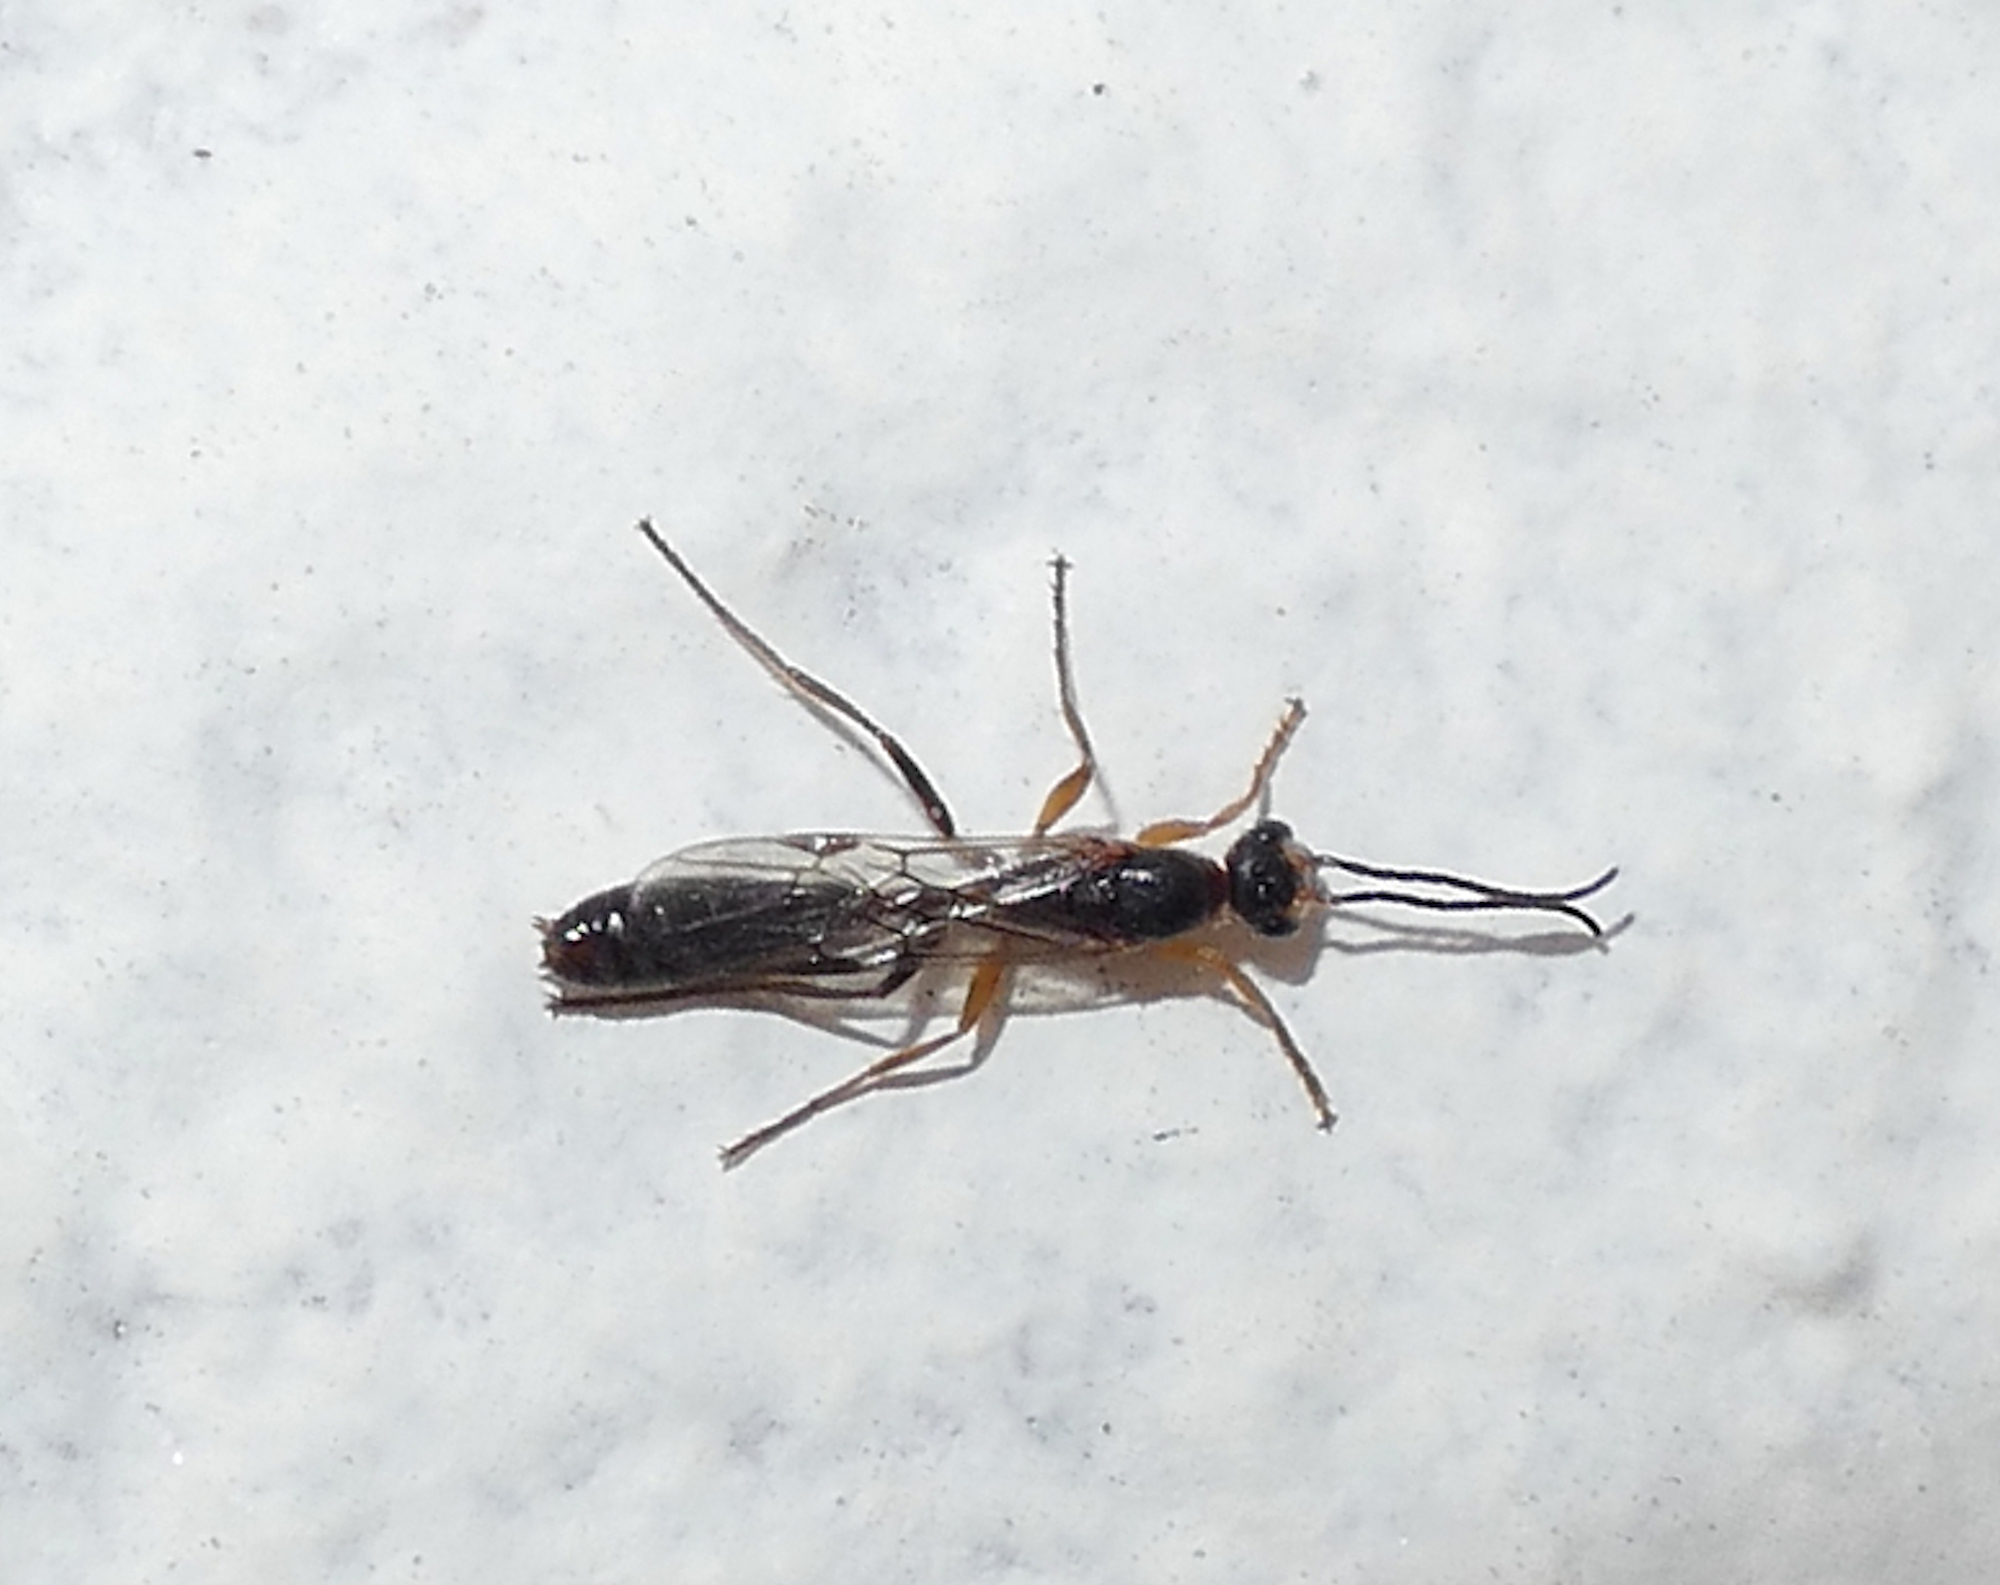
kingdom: Animalia
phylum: Arthropoda
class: Insecta
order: Hymenoptera
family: Formicidae
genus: Pseudomyrmex
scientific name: Pseudomyrmex gracilis
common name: Graceful twig ant
